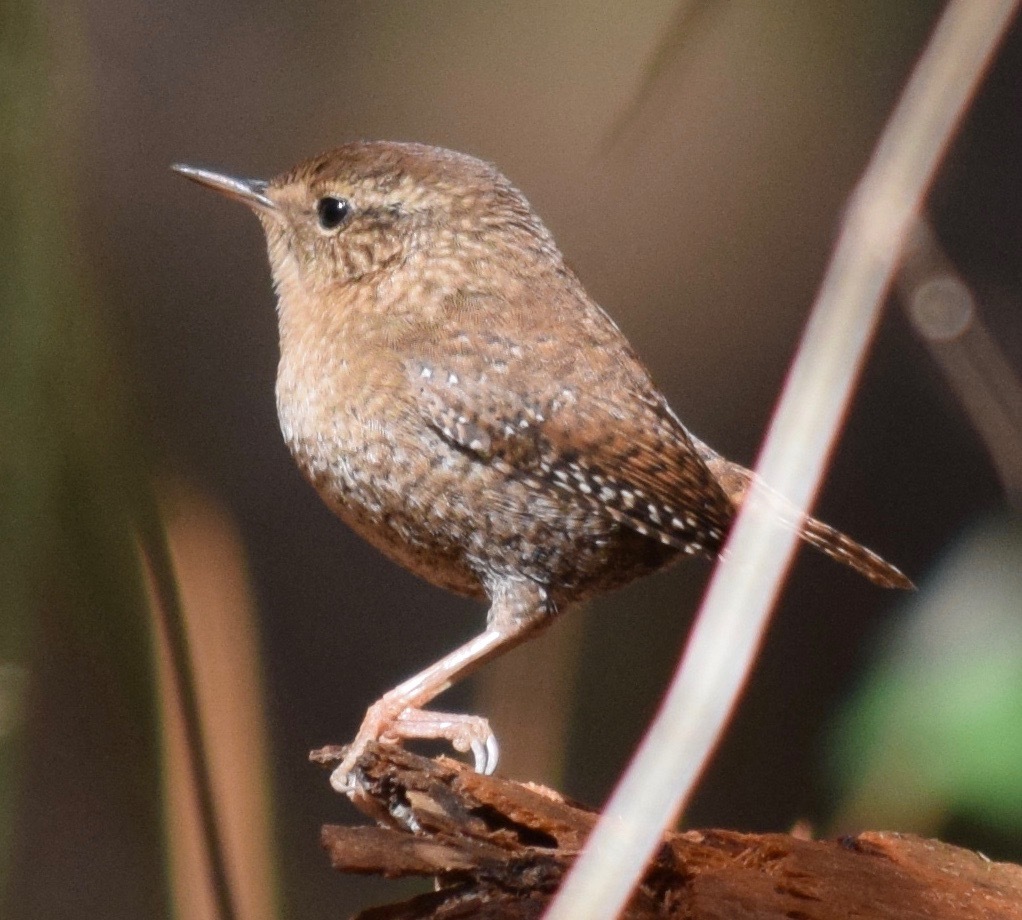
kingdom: Animalia
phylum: Chordata
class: Aves
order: Passeriformes
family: Troglodytidae
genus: Troglodytes
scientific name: Troglodytes hiemalis
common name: Winter wren
